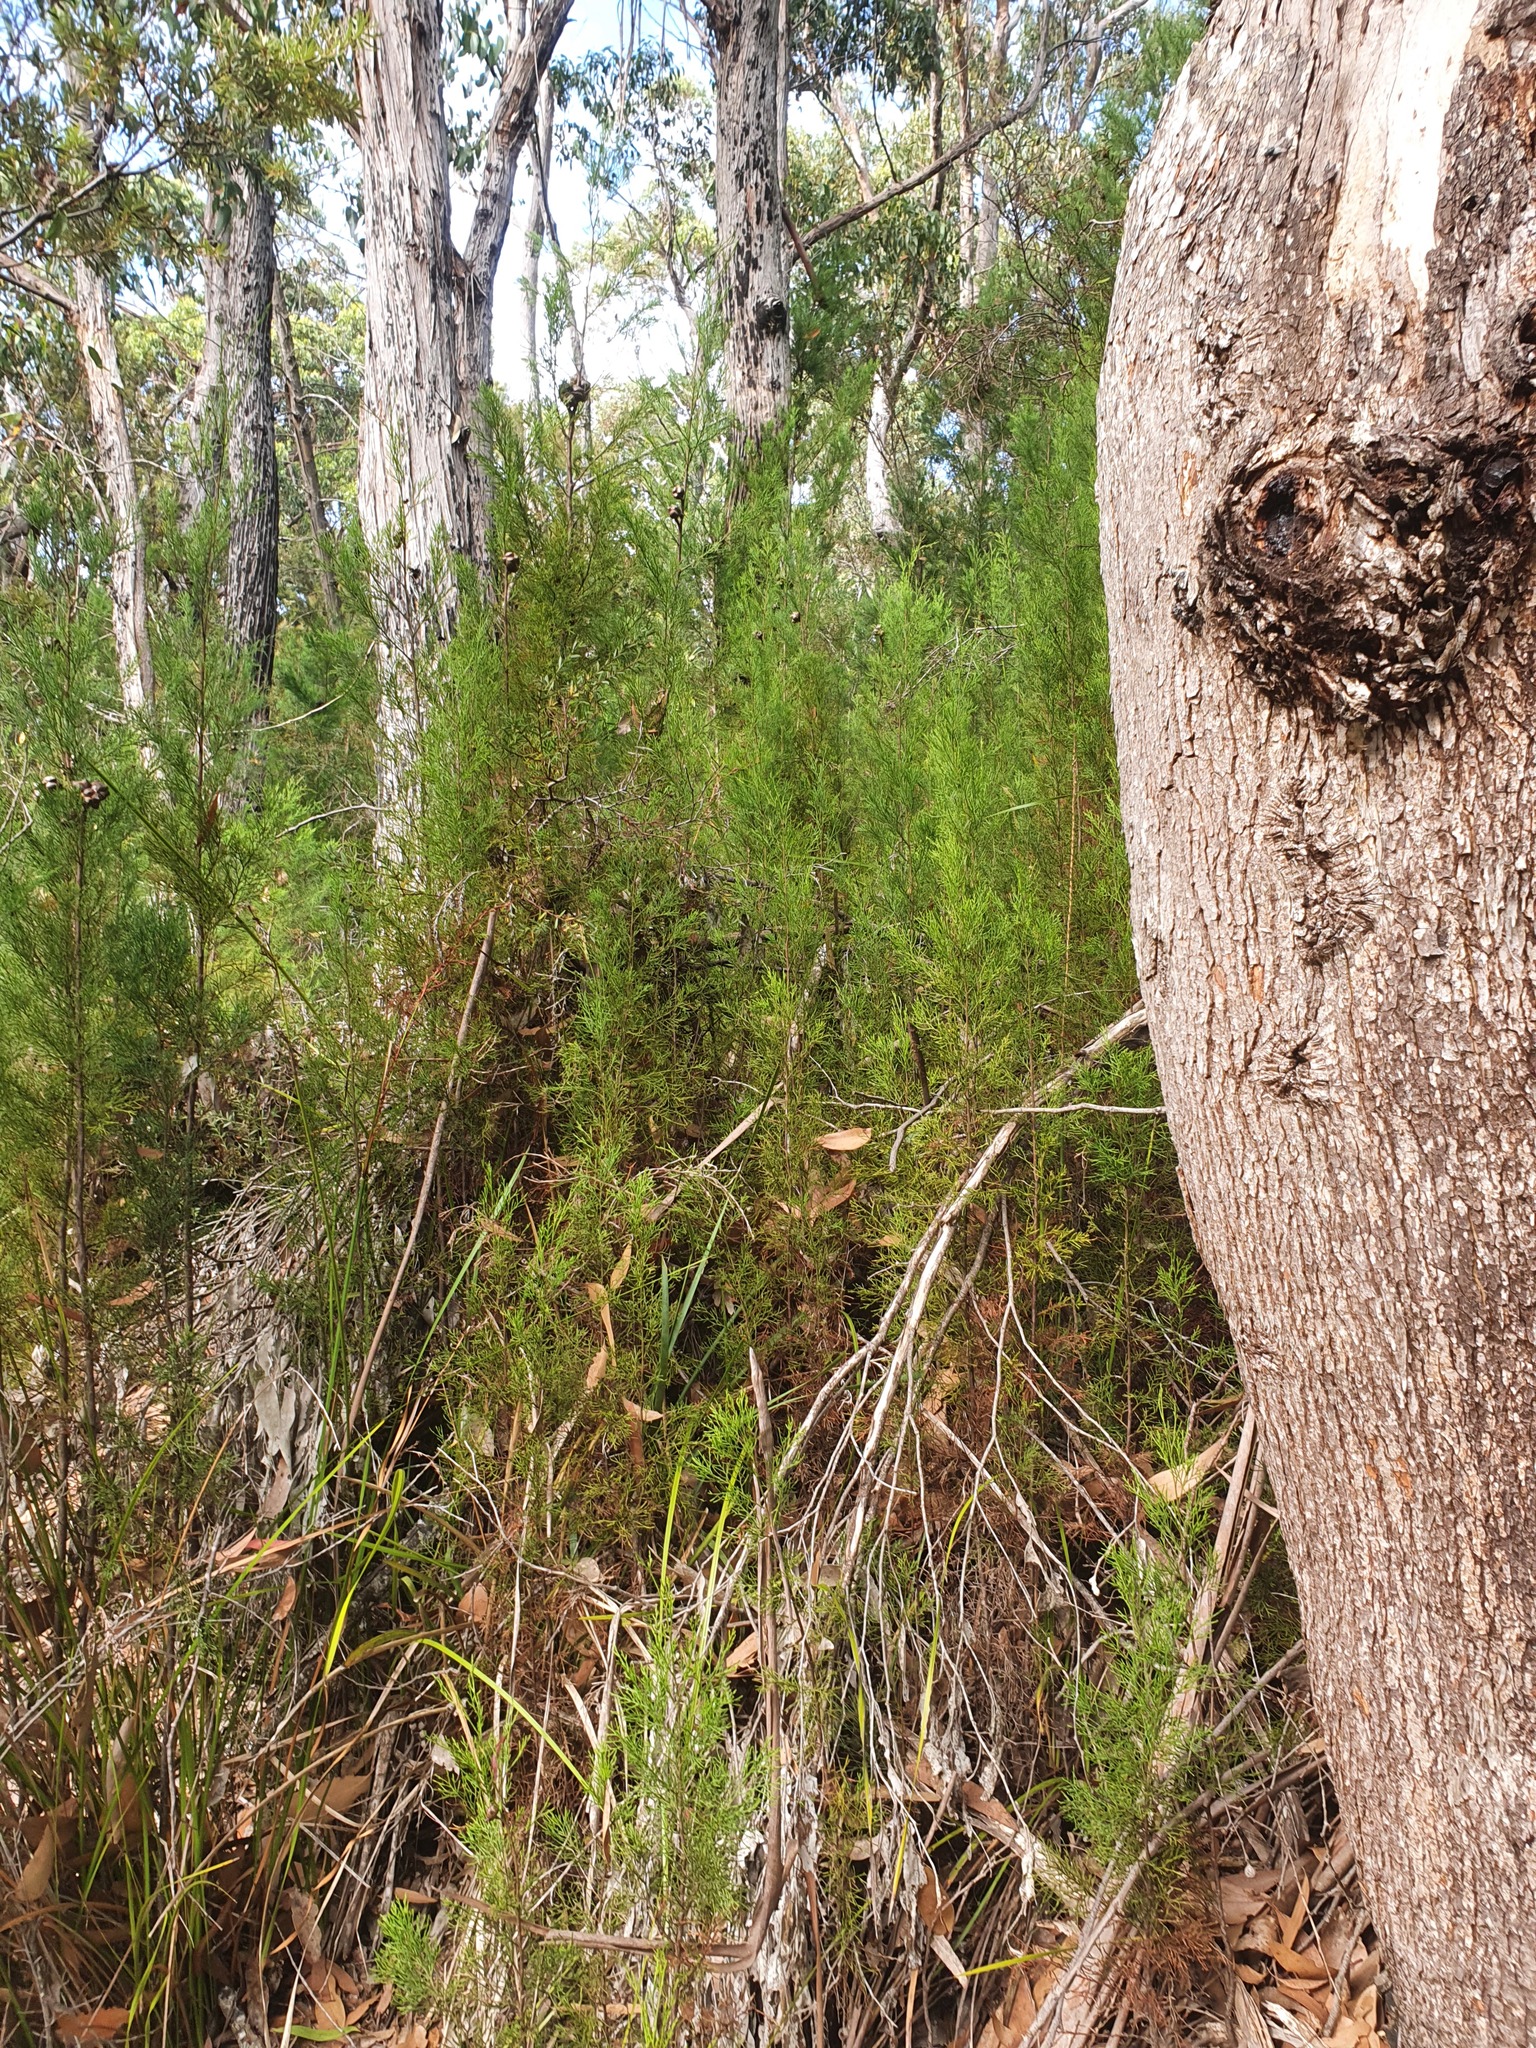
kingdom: Plantae
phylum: Tracheophyta
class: Pinopsida
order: Pinales
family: Cupressaceae
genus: Callitris
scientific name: Callitris rhomboidea
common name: Illawara mountain pine
